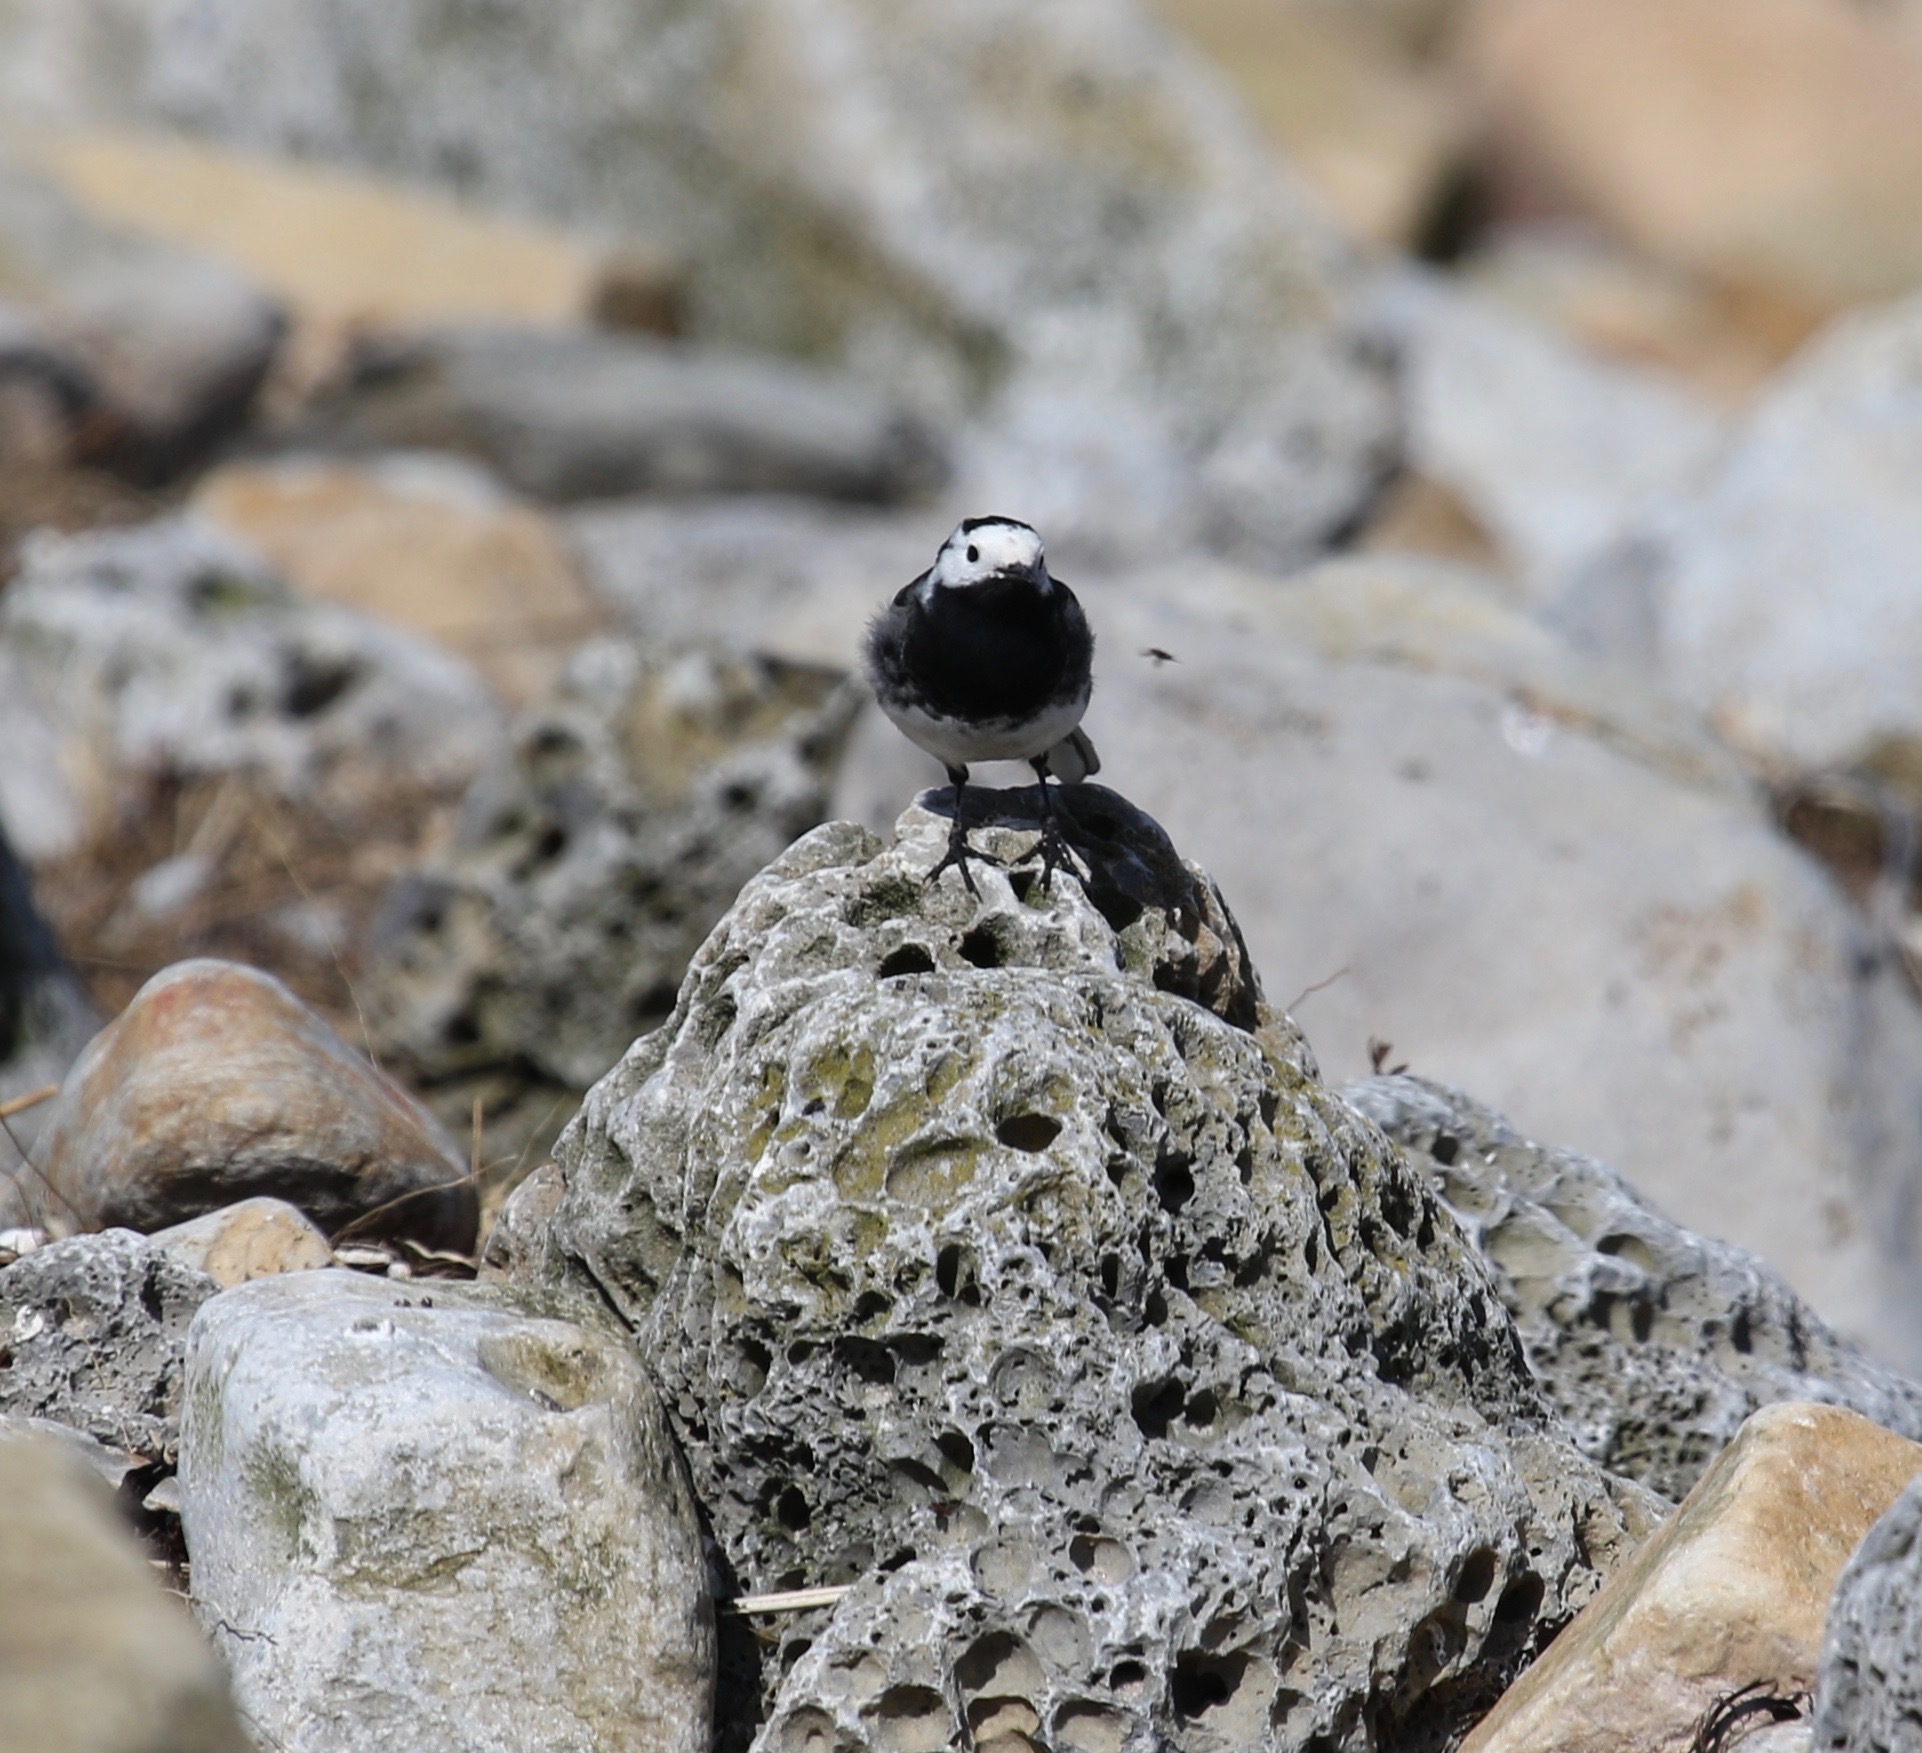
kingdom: Animalia
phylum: Chordata
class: Aves
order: Passeriformes
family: Motacillidae
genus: Motacilla
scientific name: Motacilla alba
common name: White wagtail
